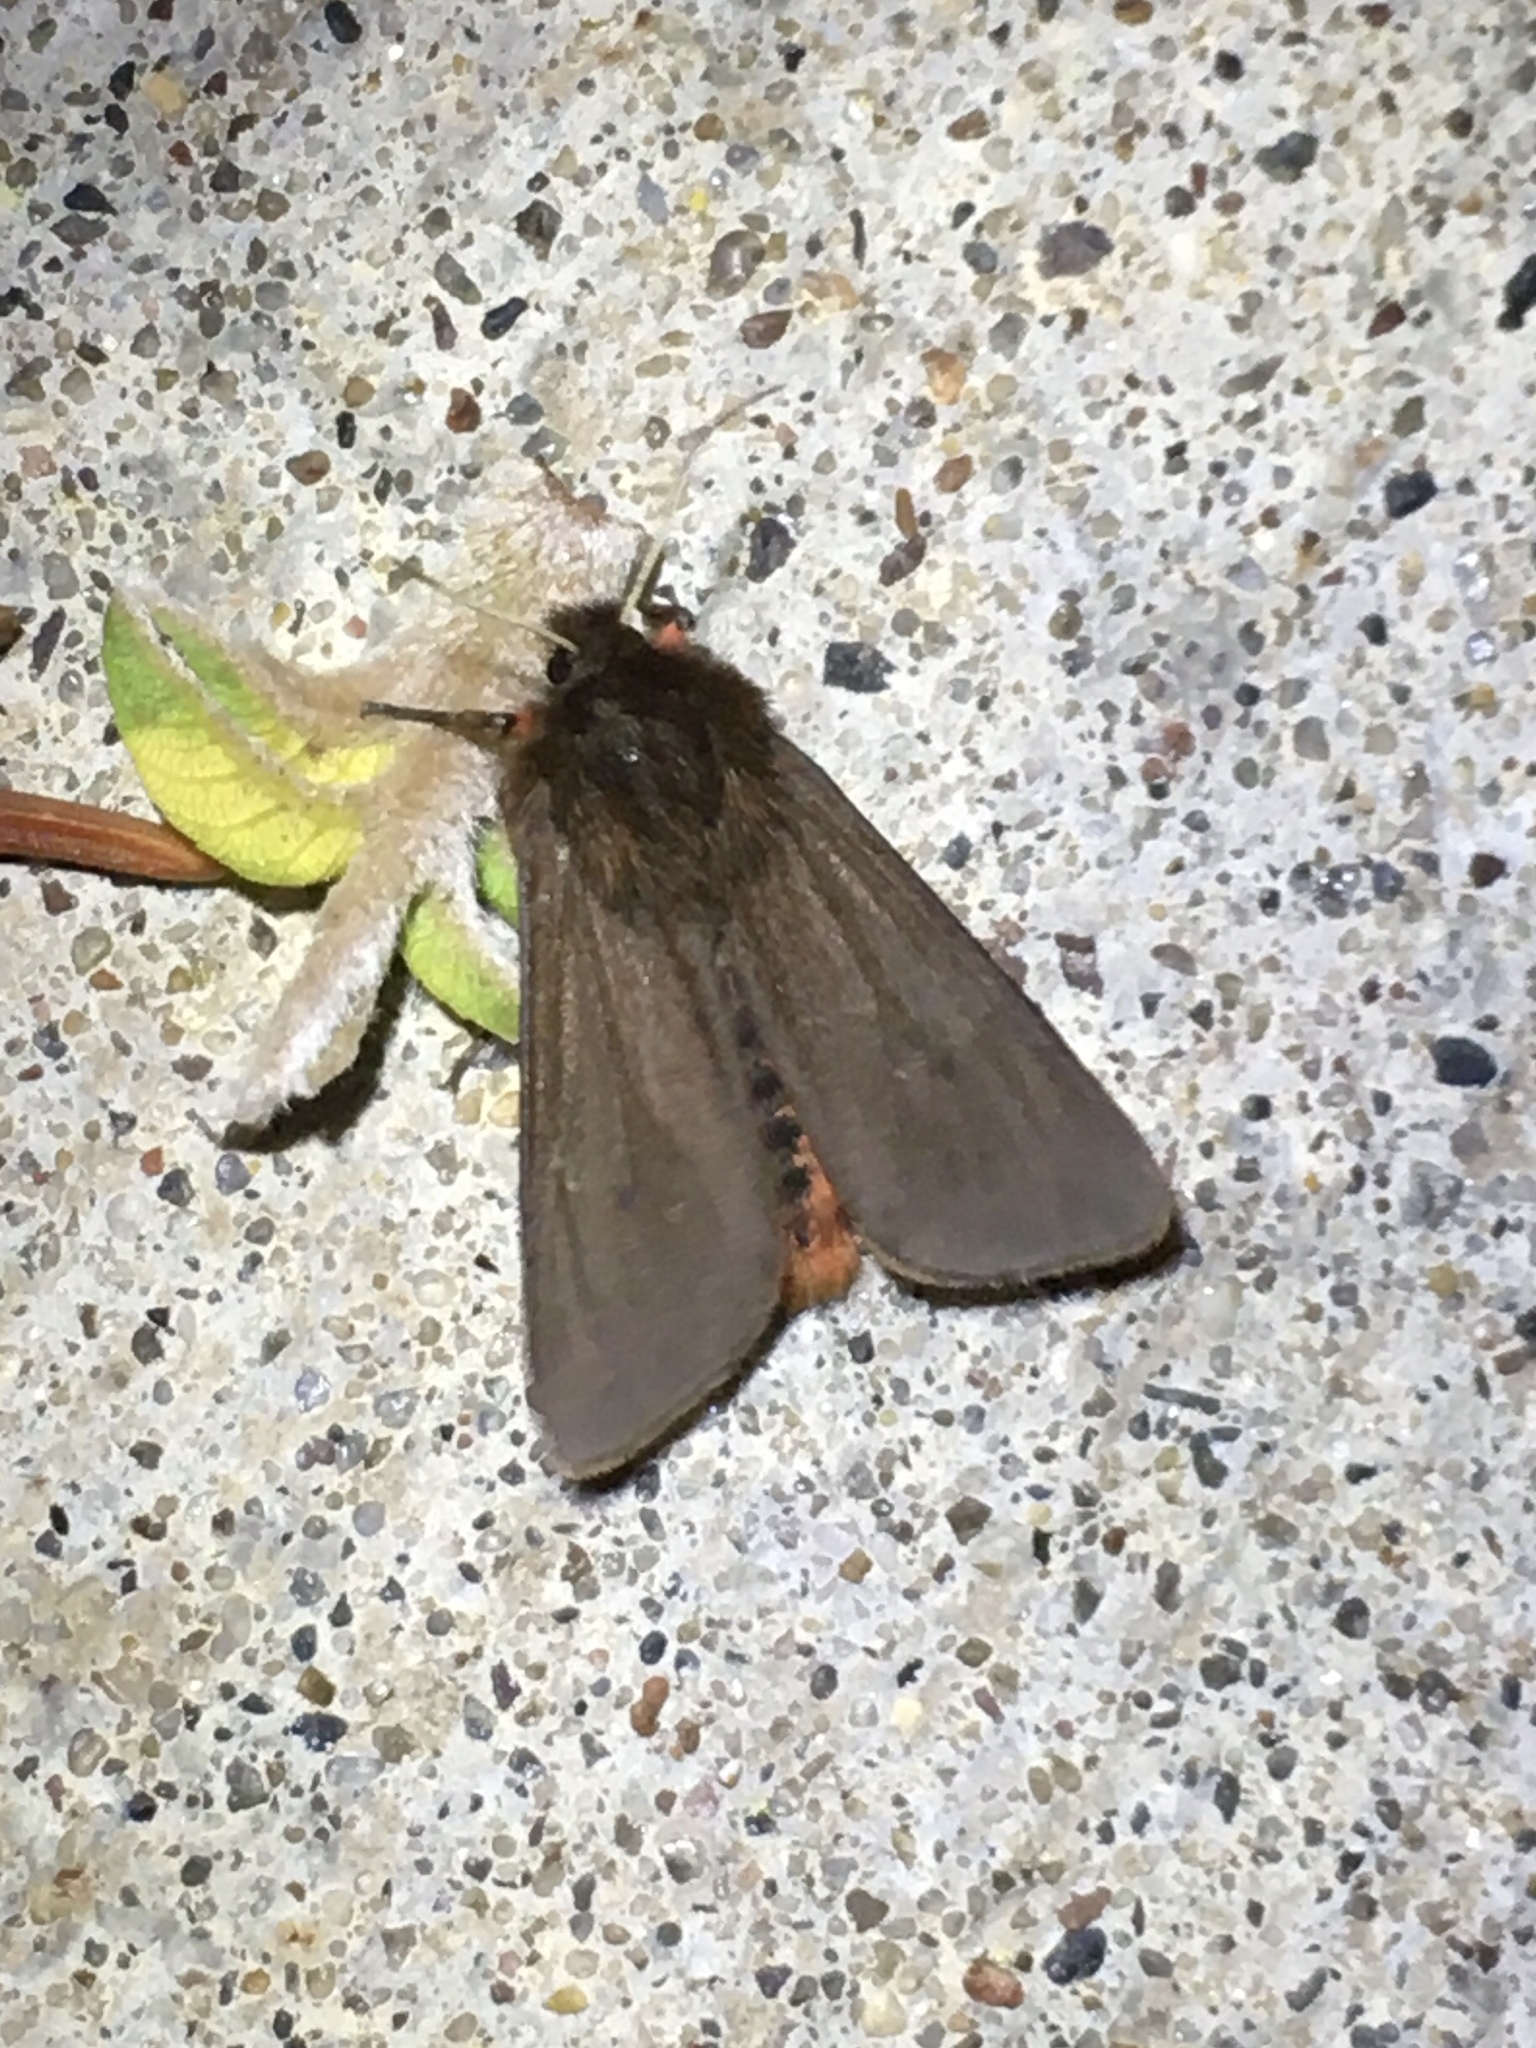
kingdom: Animalia
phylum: Arthropoda
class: Insecta
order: Lepidoptera
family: Erebidae
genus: Phragmatobia
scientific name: Phragmatobia fuliginosa
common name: Ruby tiger
